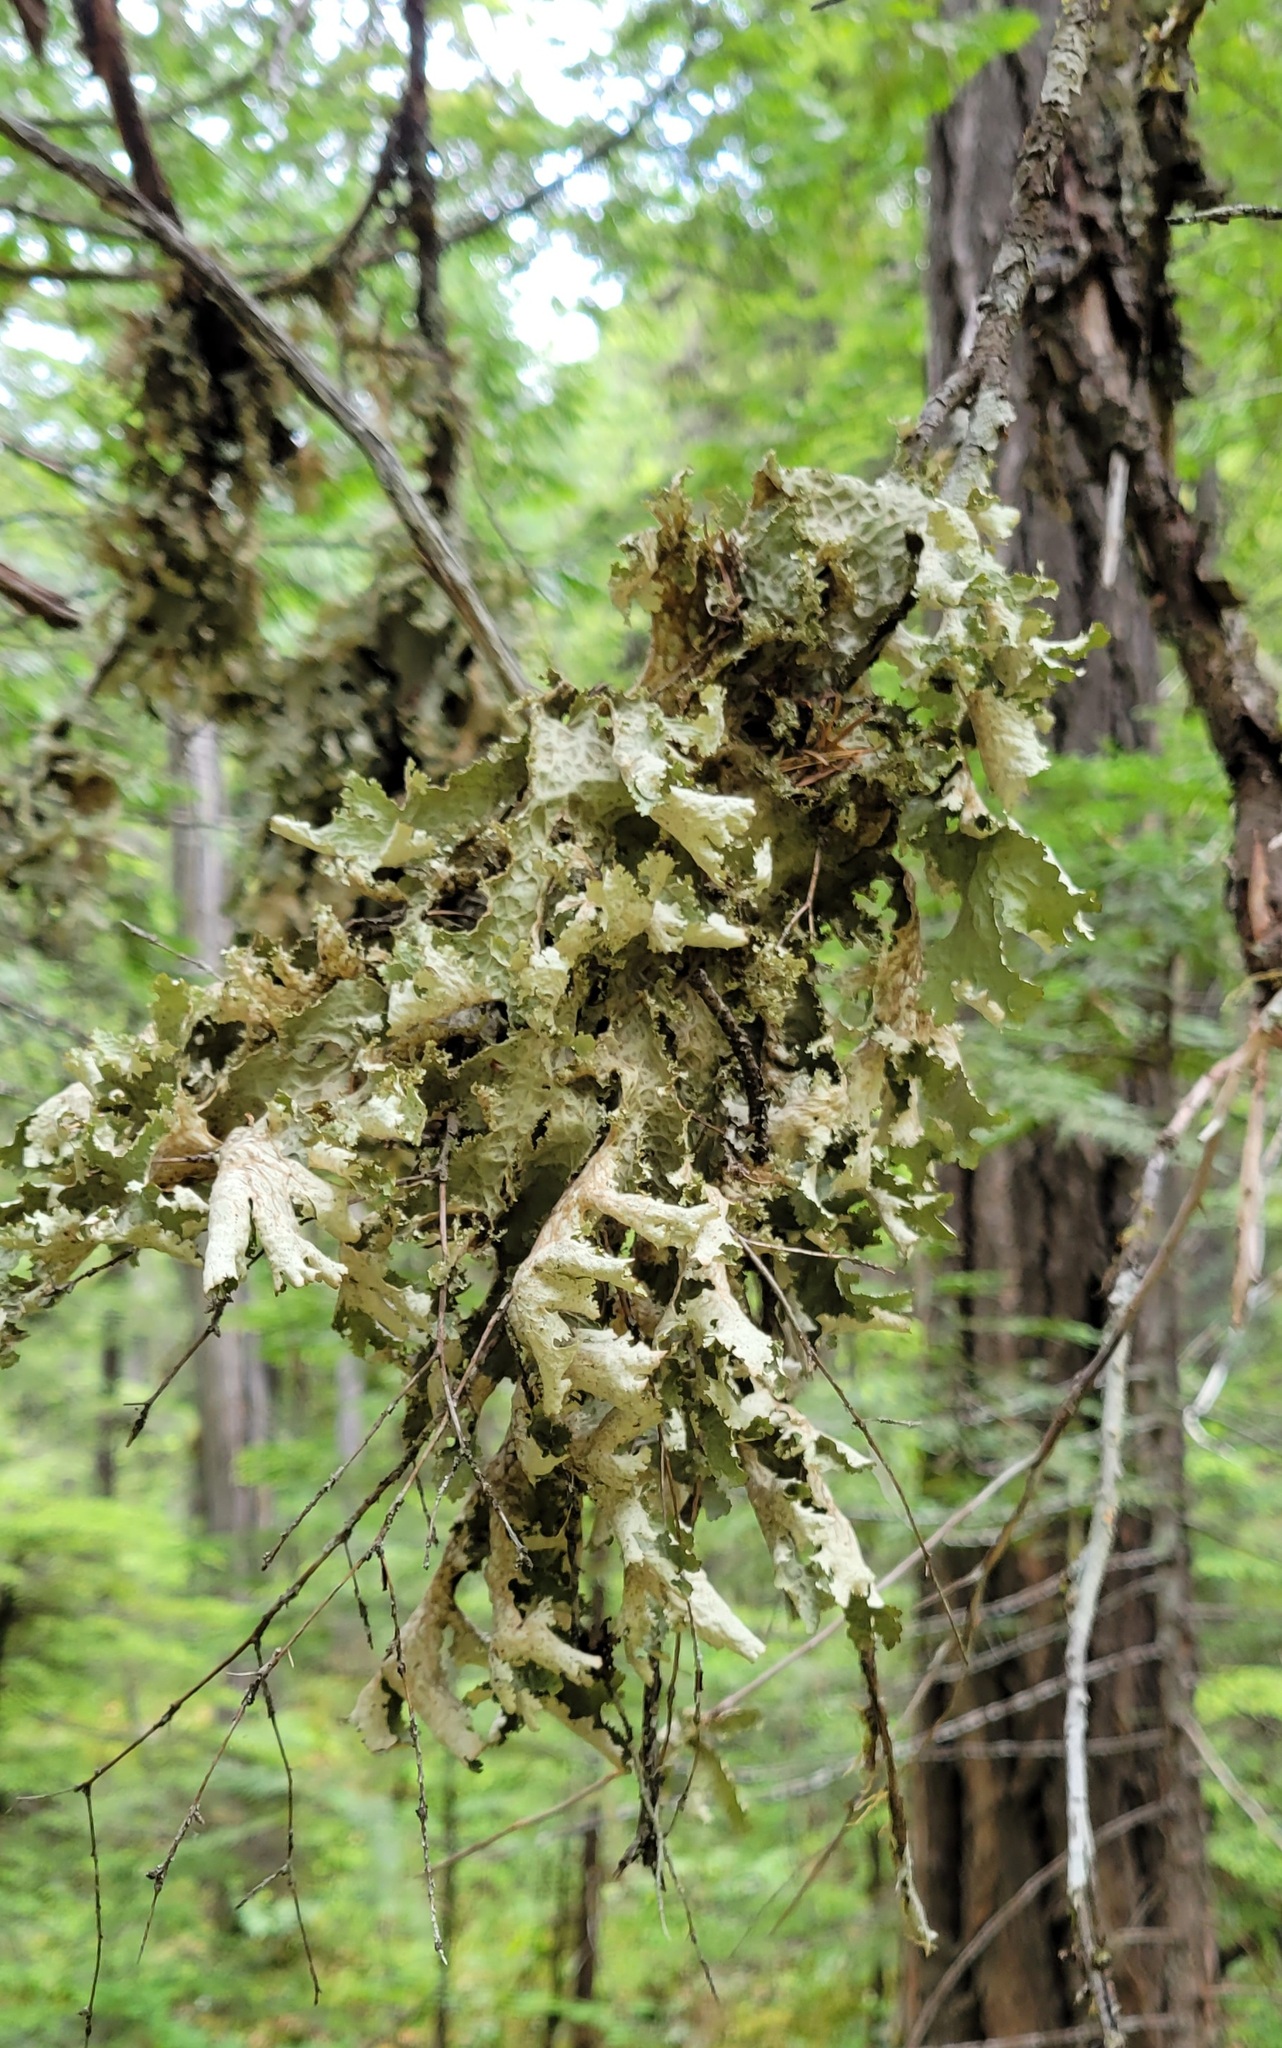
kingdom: Fungi
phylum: Ascomycota
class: Lecanoromycetes
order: Peltigerales
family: Lobariaceae
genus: Lobaria
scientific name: Lobaria oregana
